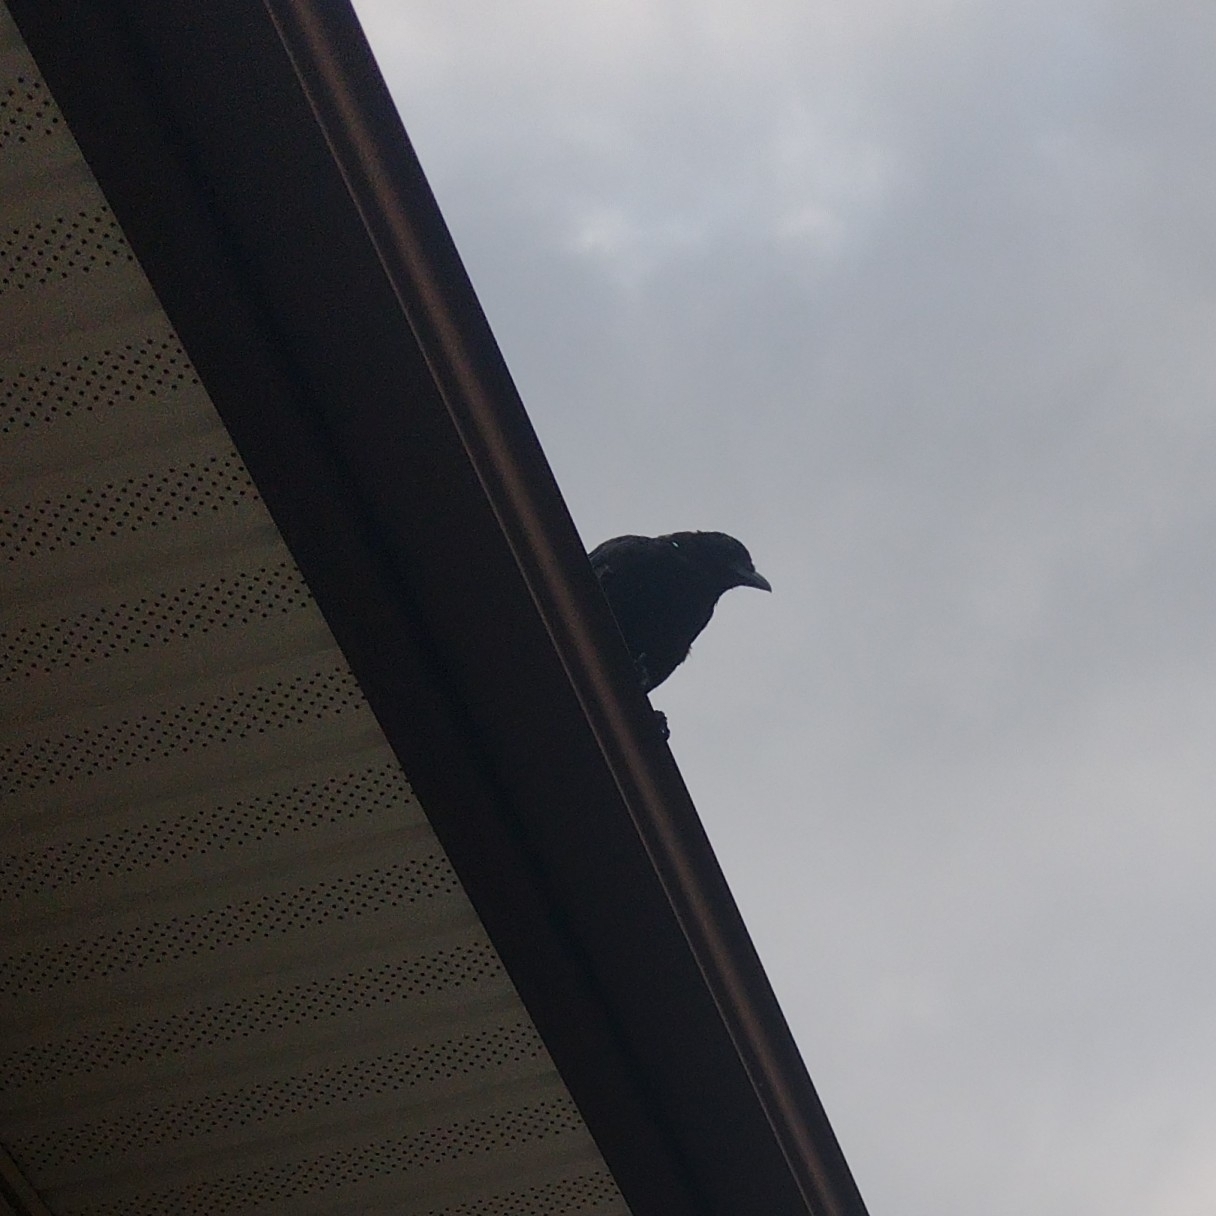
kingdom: Animalia
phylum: Chordata
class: Aves
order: Passeriformes
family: Corvidae
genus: Corvus
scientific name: Corvus brachyrhynchos
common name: American crow
